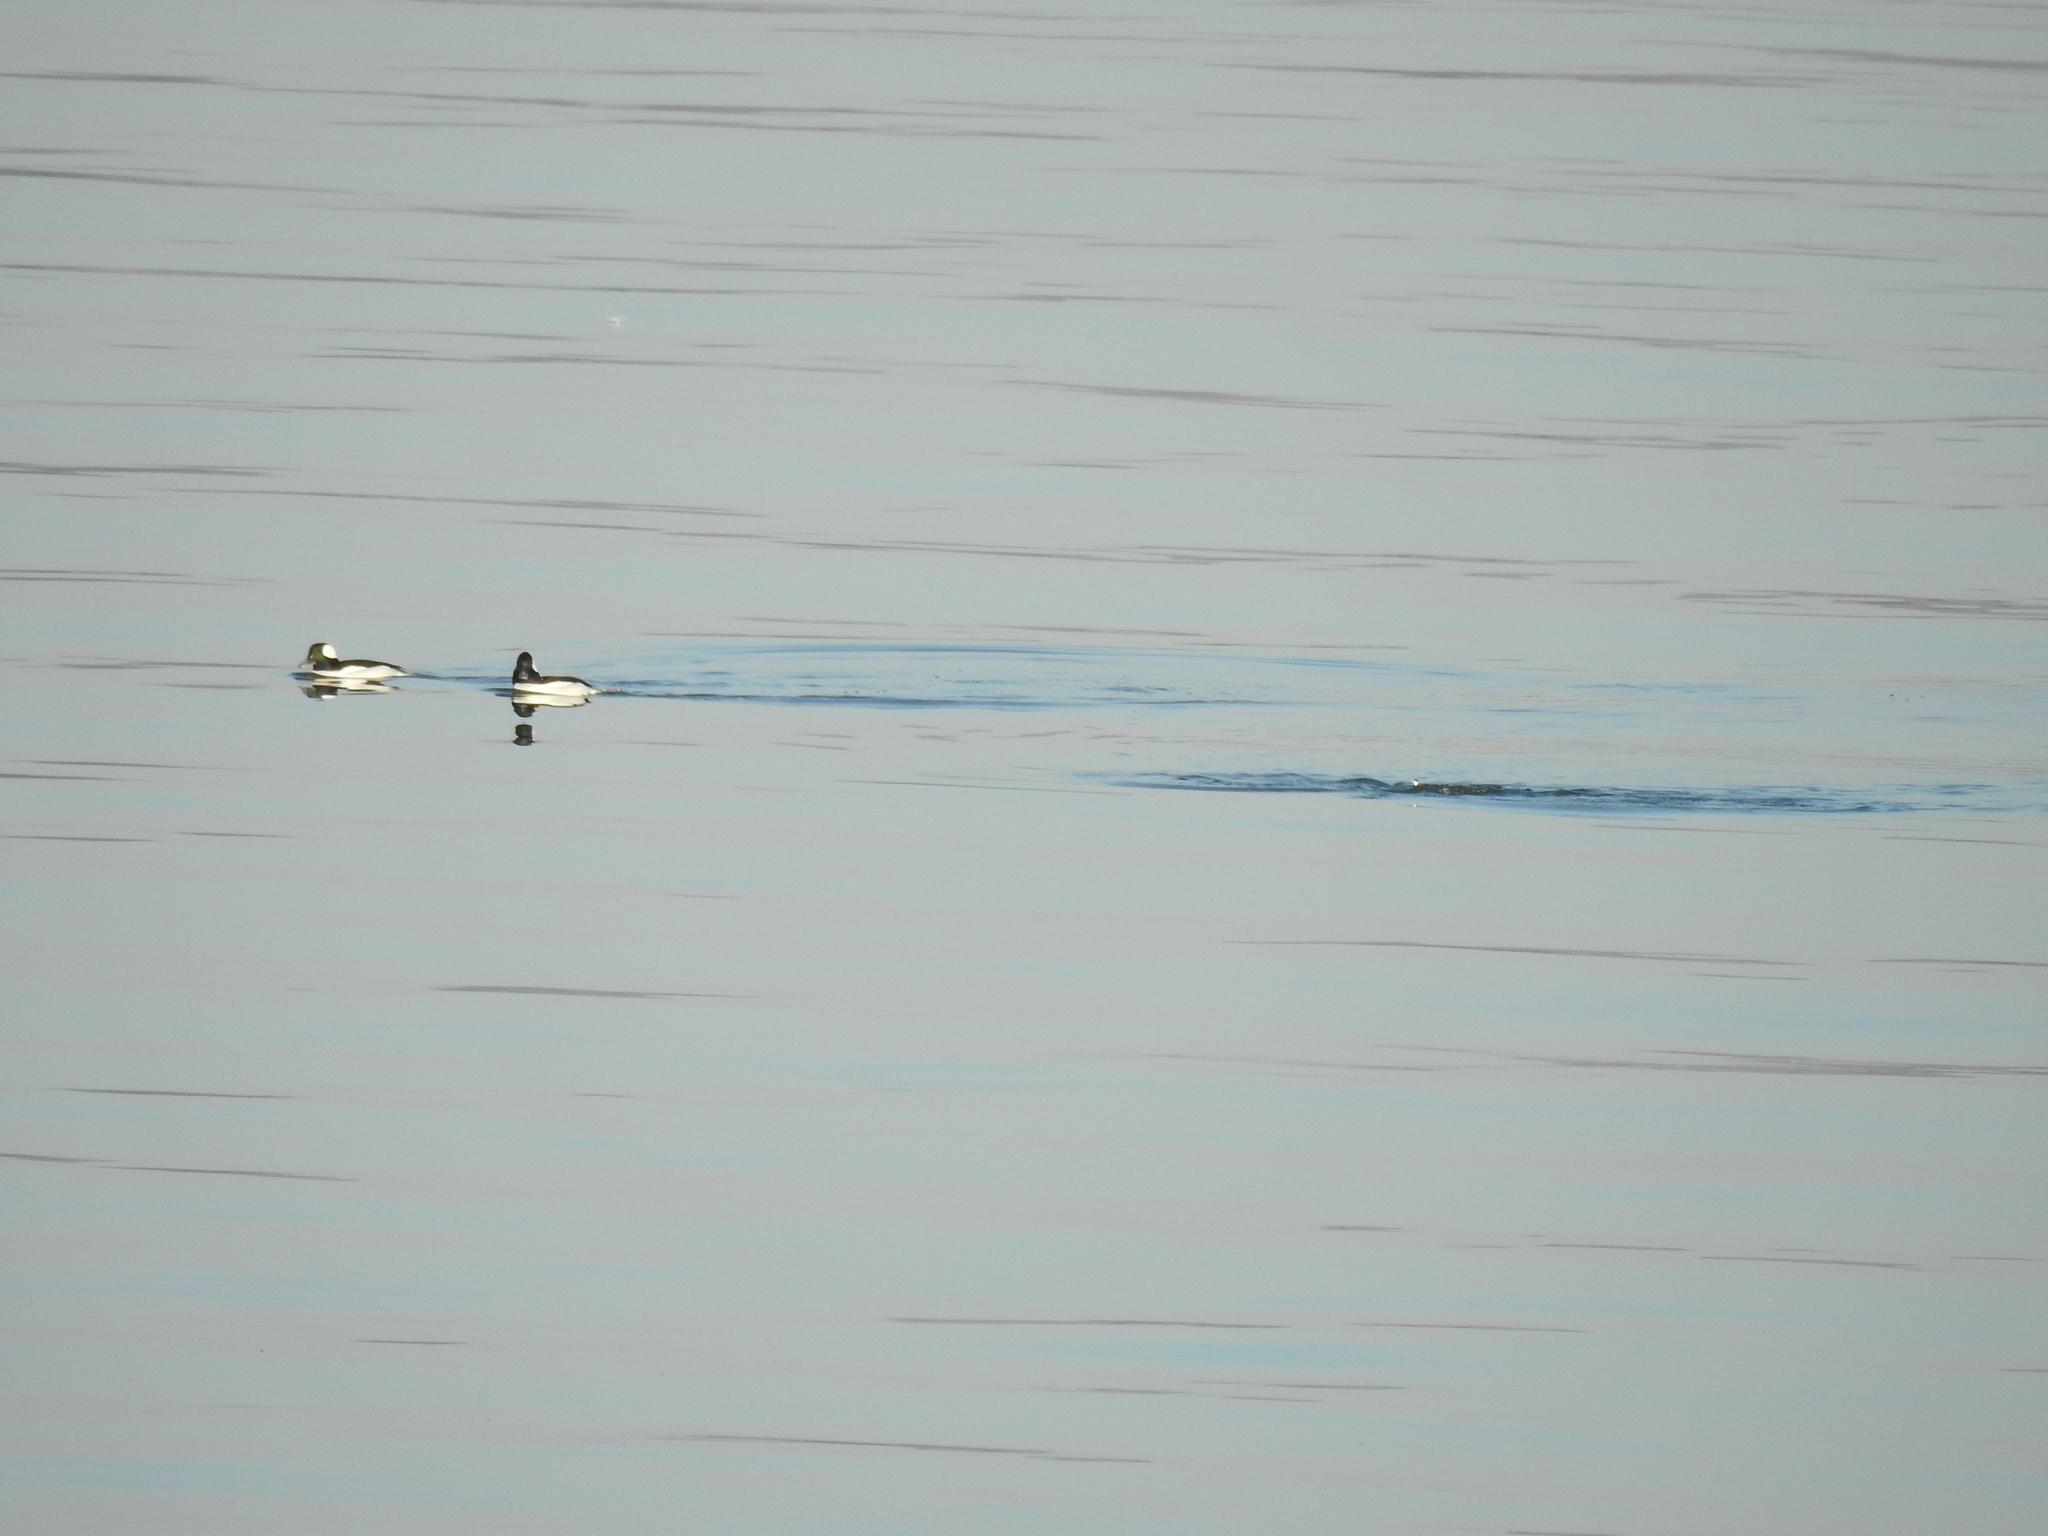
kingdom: Animalia
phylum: Chordata
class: Aves
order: Anseriformes
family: Anatidae
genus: Bucephala
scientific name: Bucephala albeola
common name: Bufflehead
